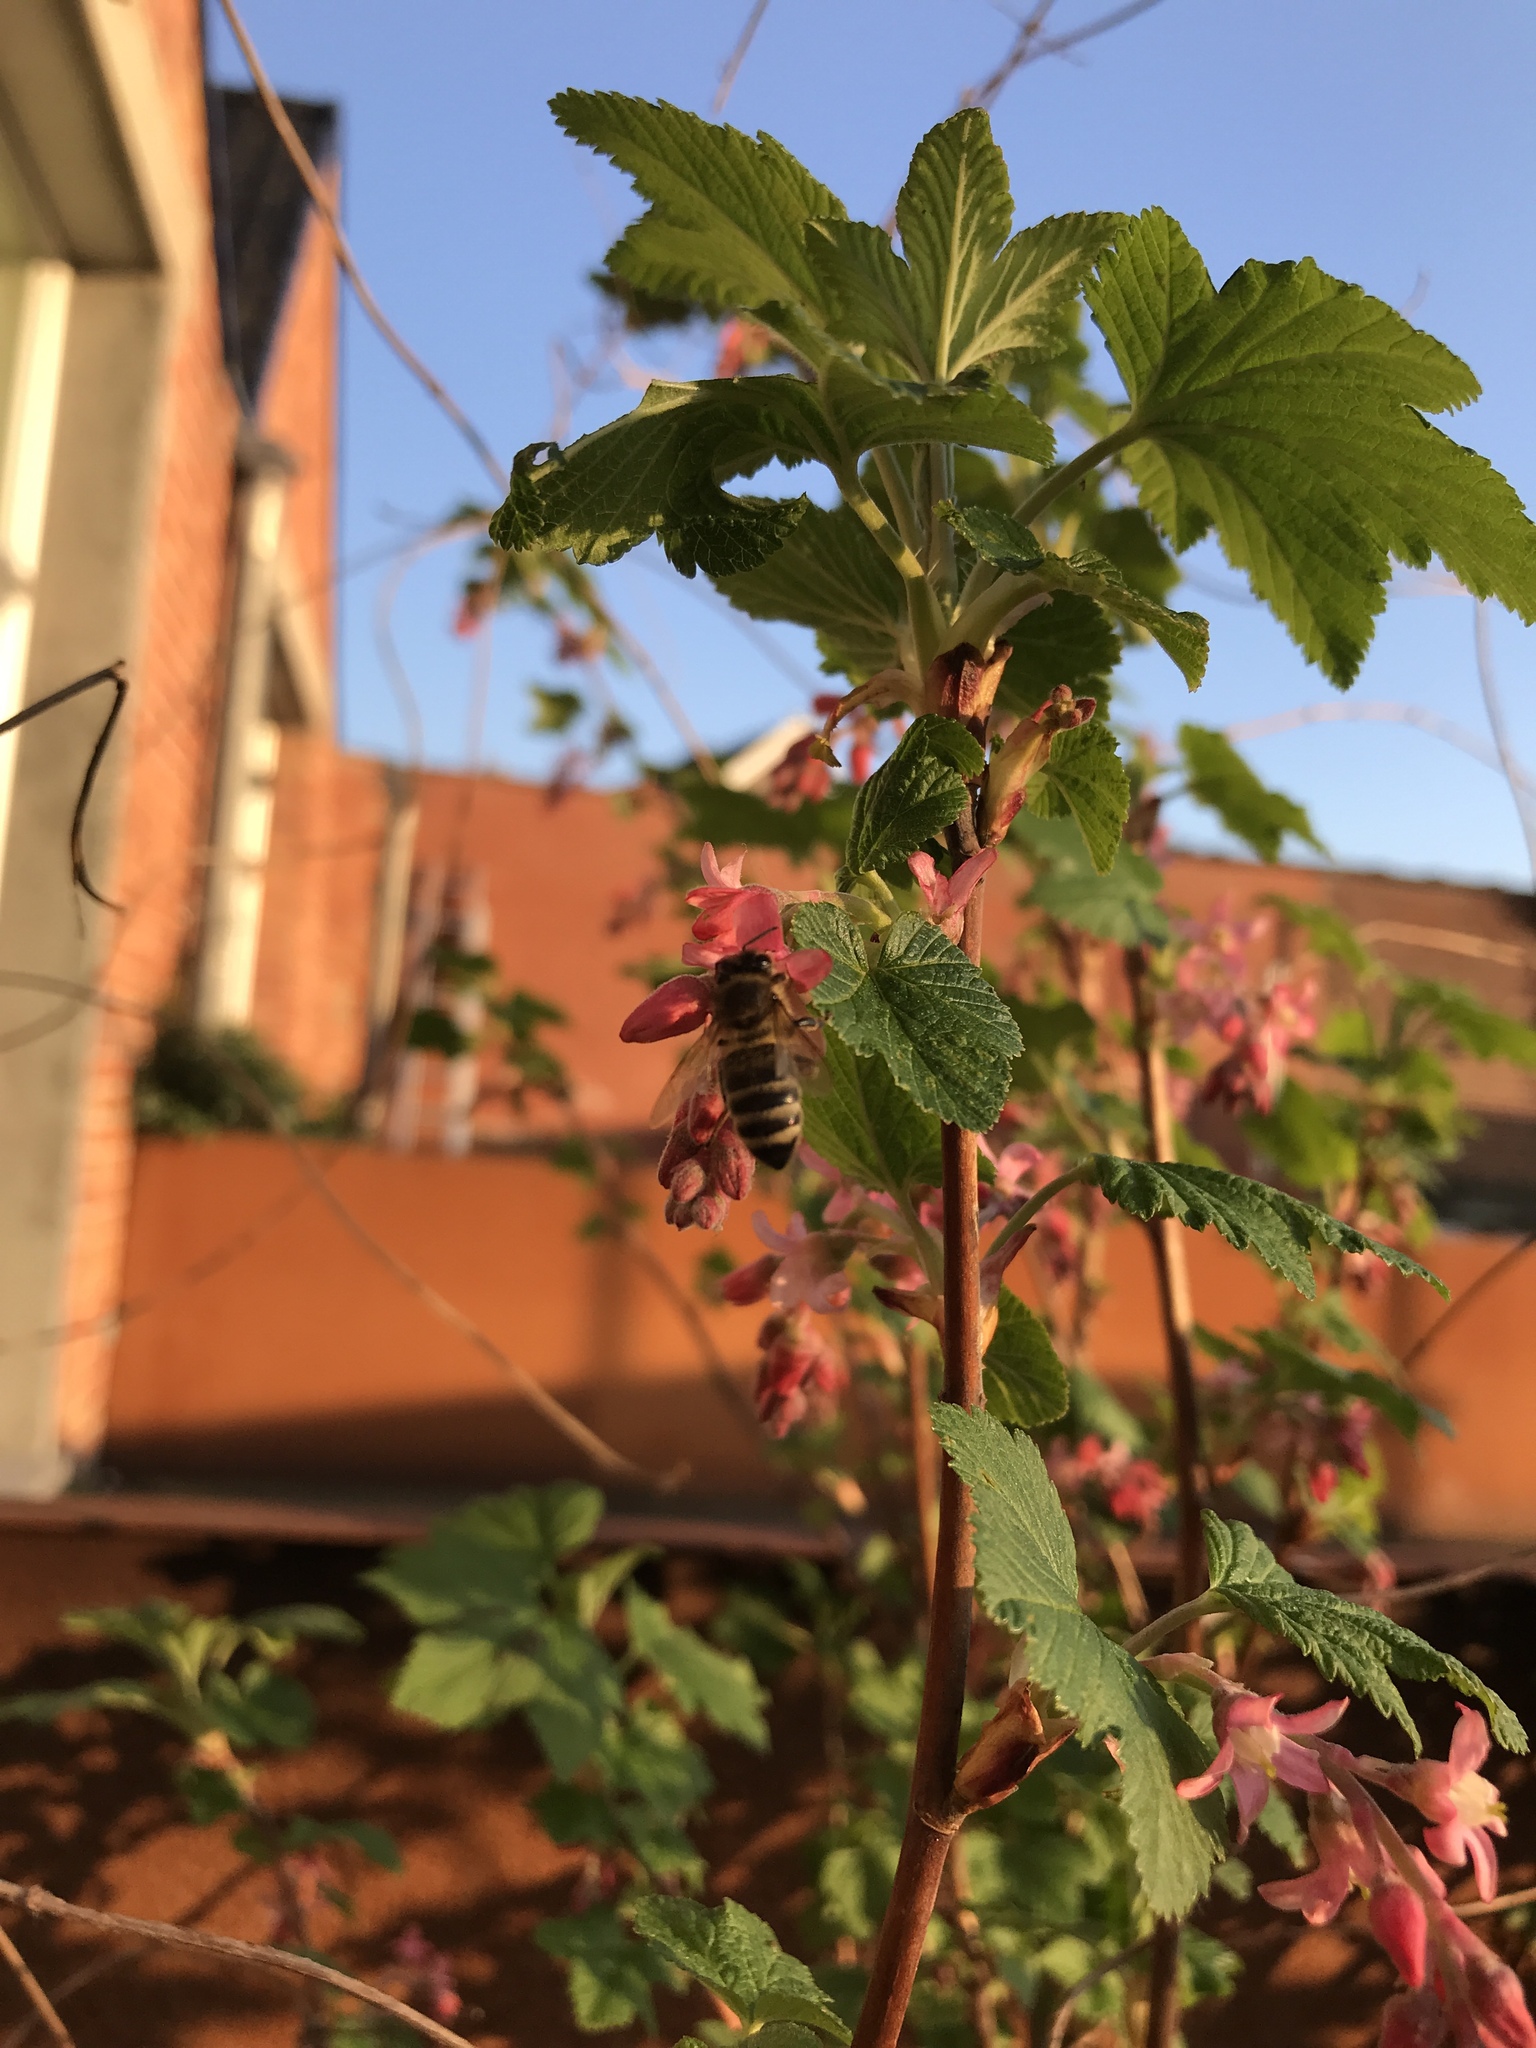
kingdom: Animalia
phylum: Arthropoda
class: Insecta
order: Hymenoptera
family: Apidae
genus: Apis
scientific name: Apis mellifera
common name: Honey bee
